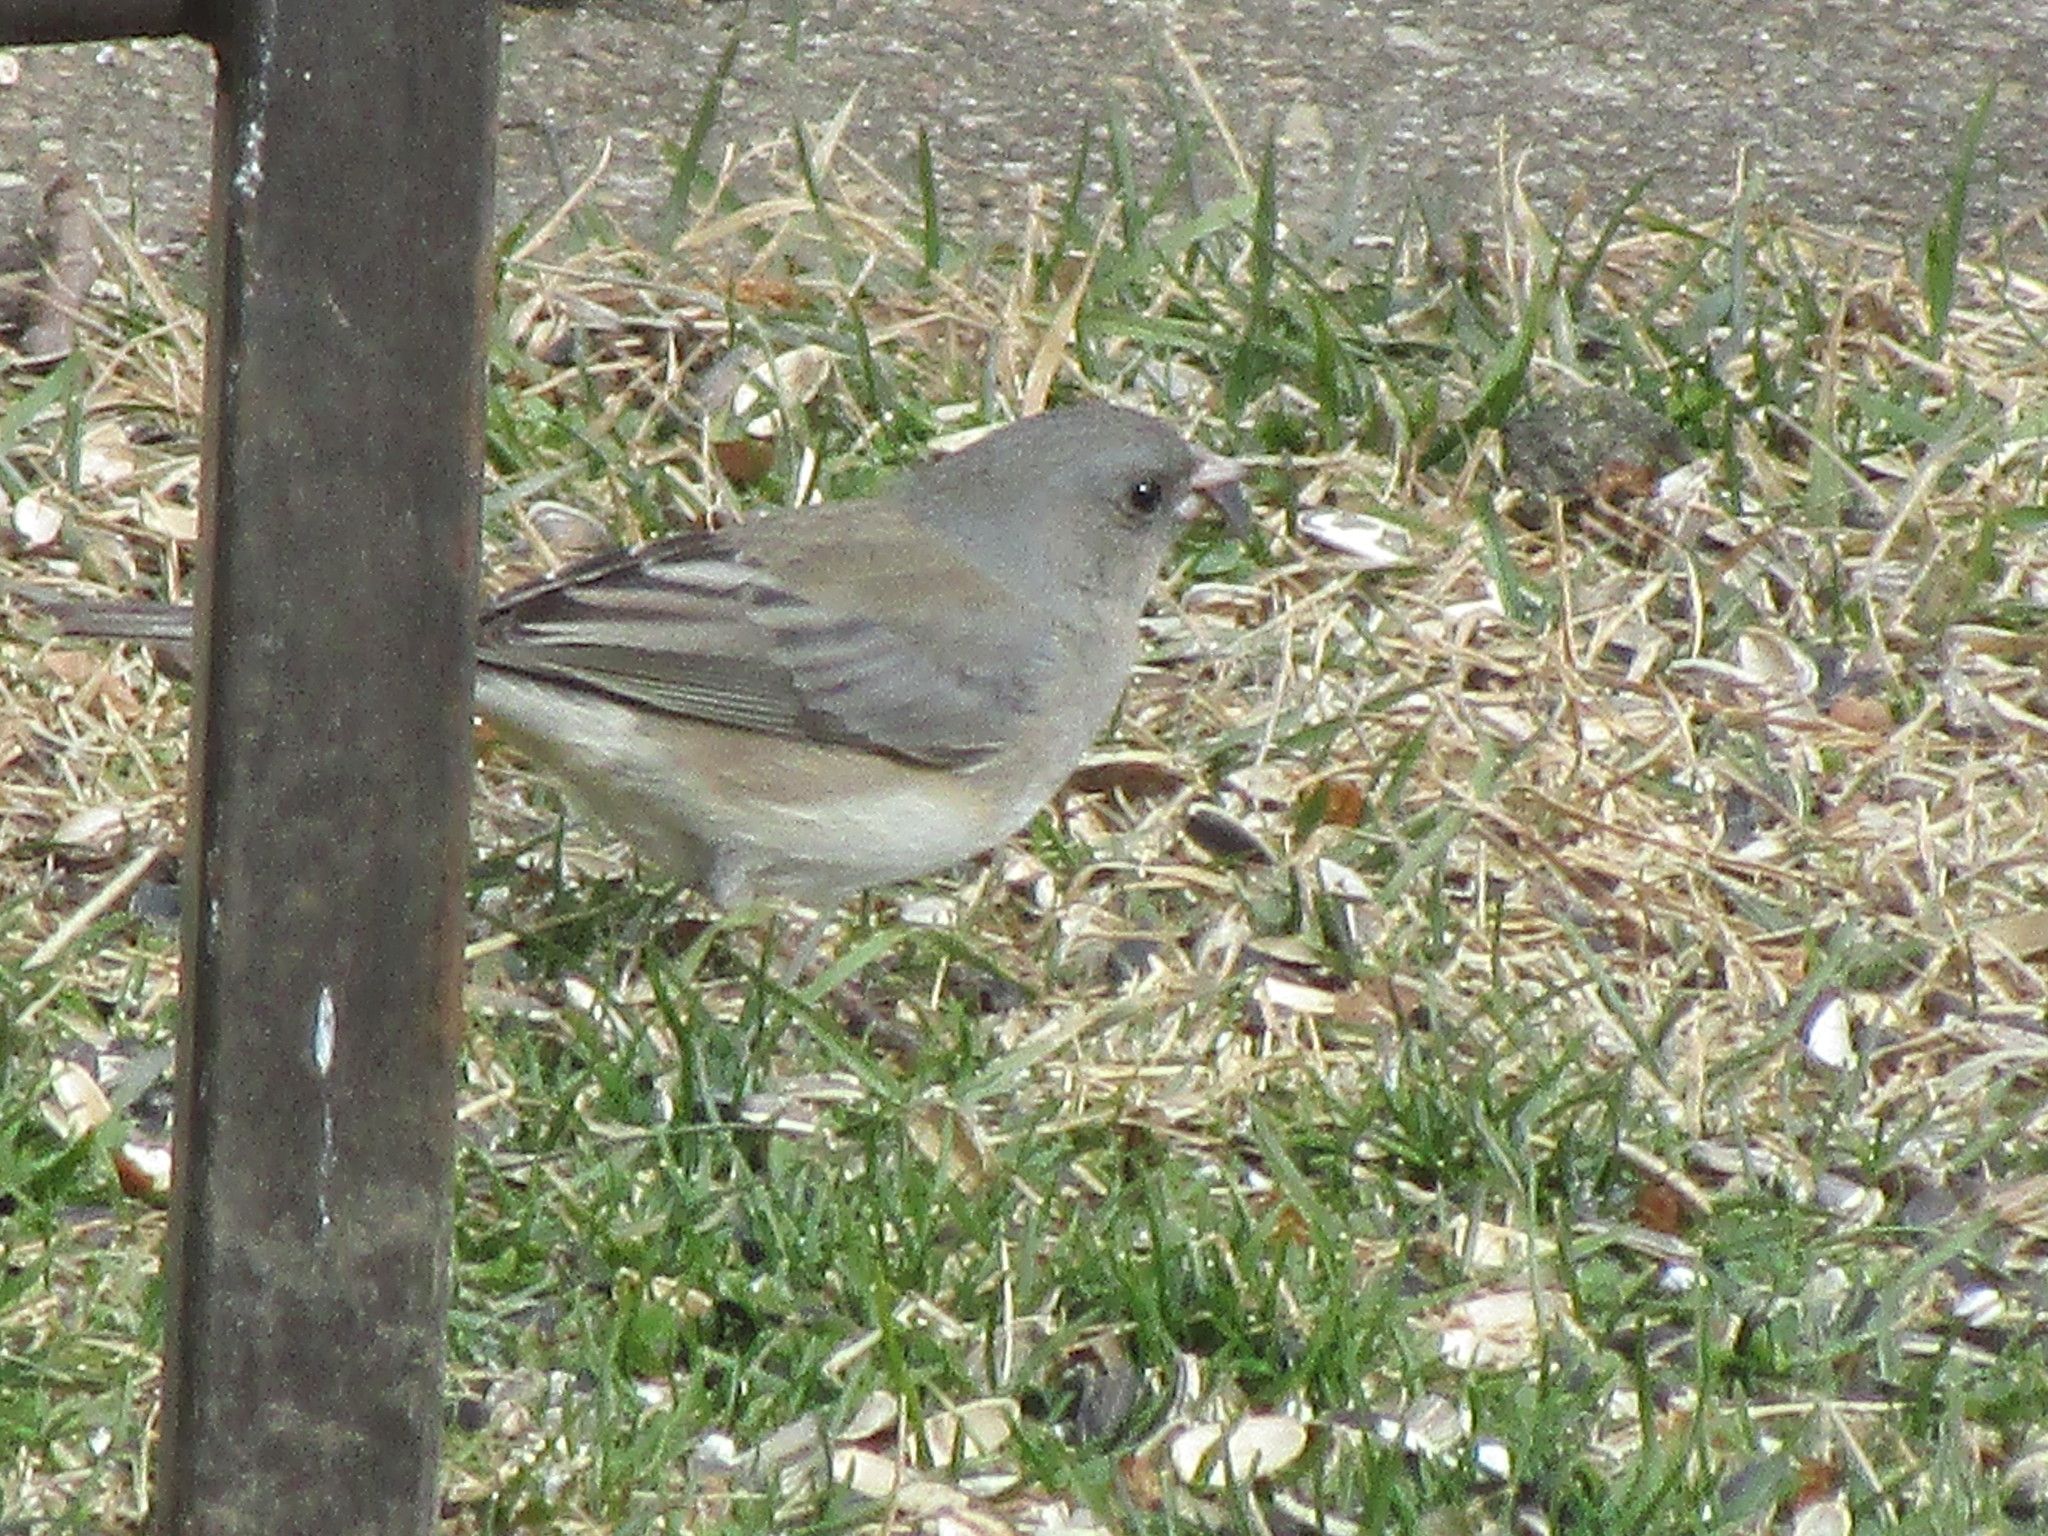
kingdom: Animalia
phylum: Chordata
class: Aves
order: Passeriformes
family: Passerellidae
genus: Junco
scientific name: Junco hyemalis
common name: Dark-eyed junco
